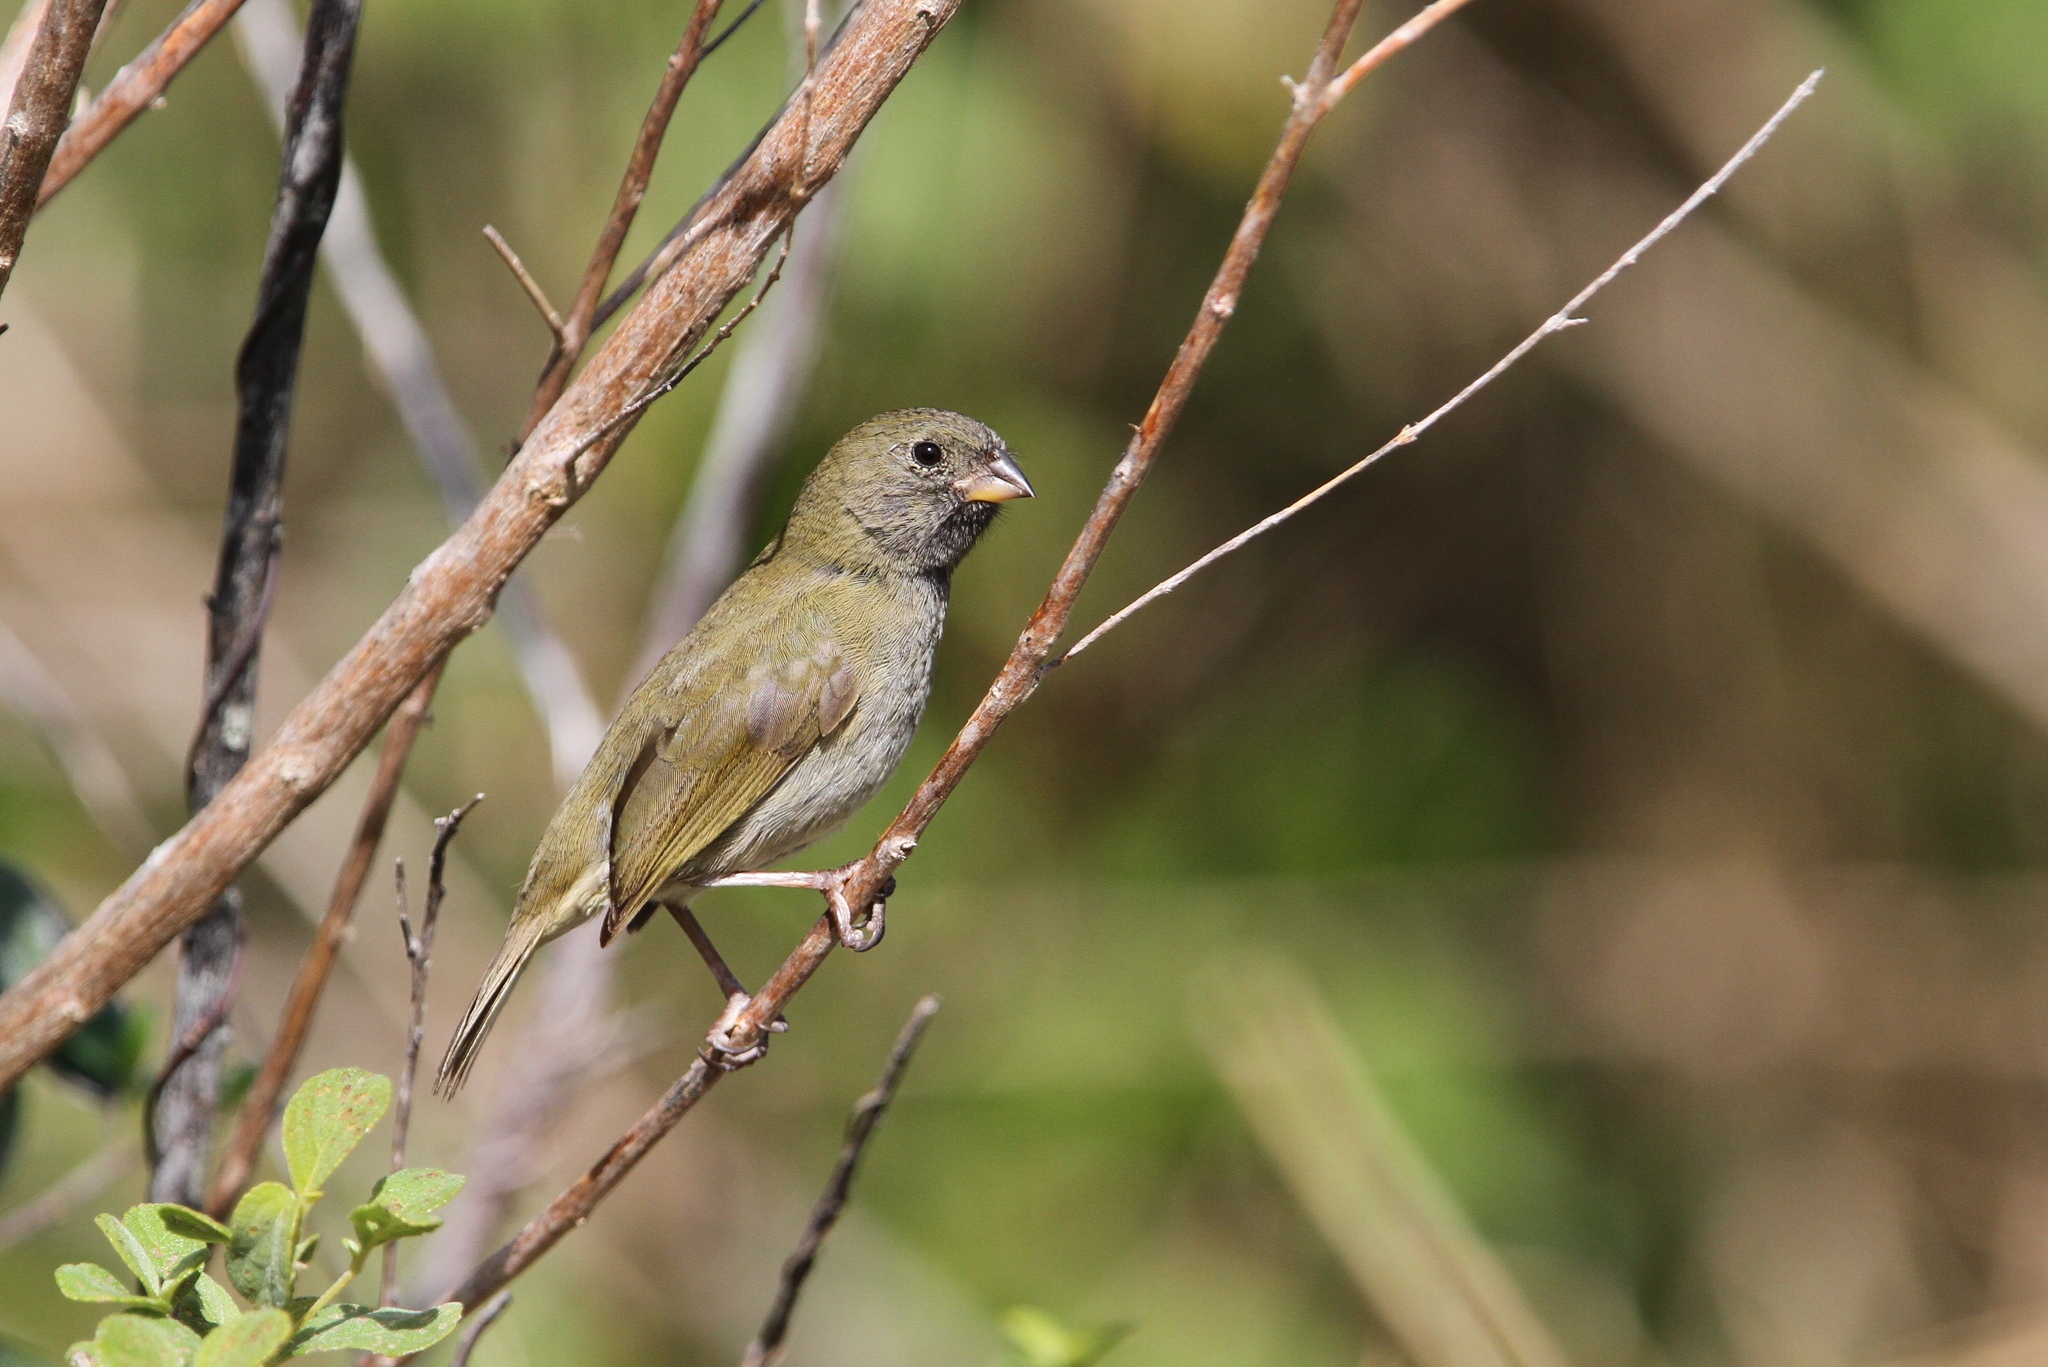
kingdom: Animalia
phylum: Chordata
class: Aves
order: Passeriformes
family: Thraupidae
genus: Melanospiza
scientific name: Melanospiza bicolor
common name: Black-faced grassquit
